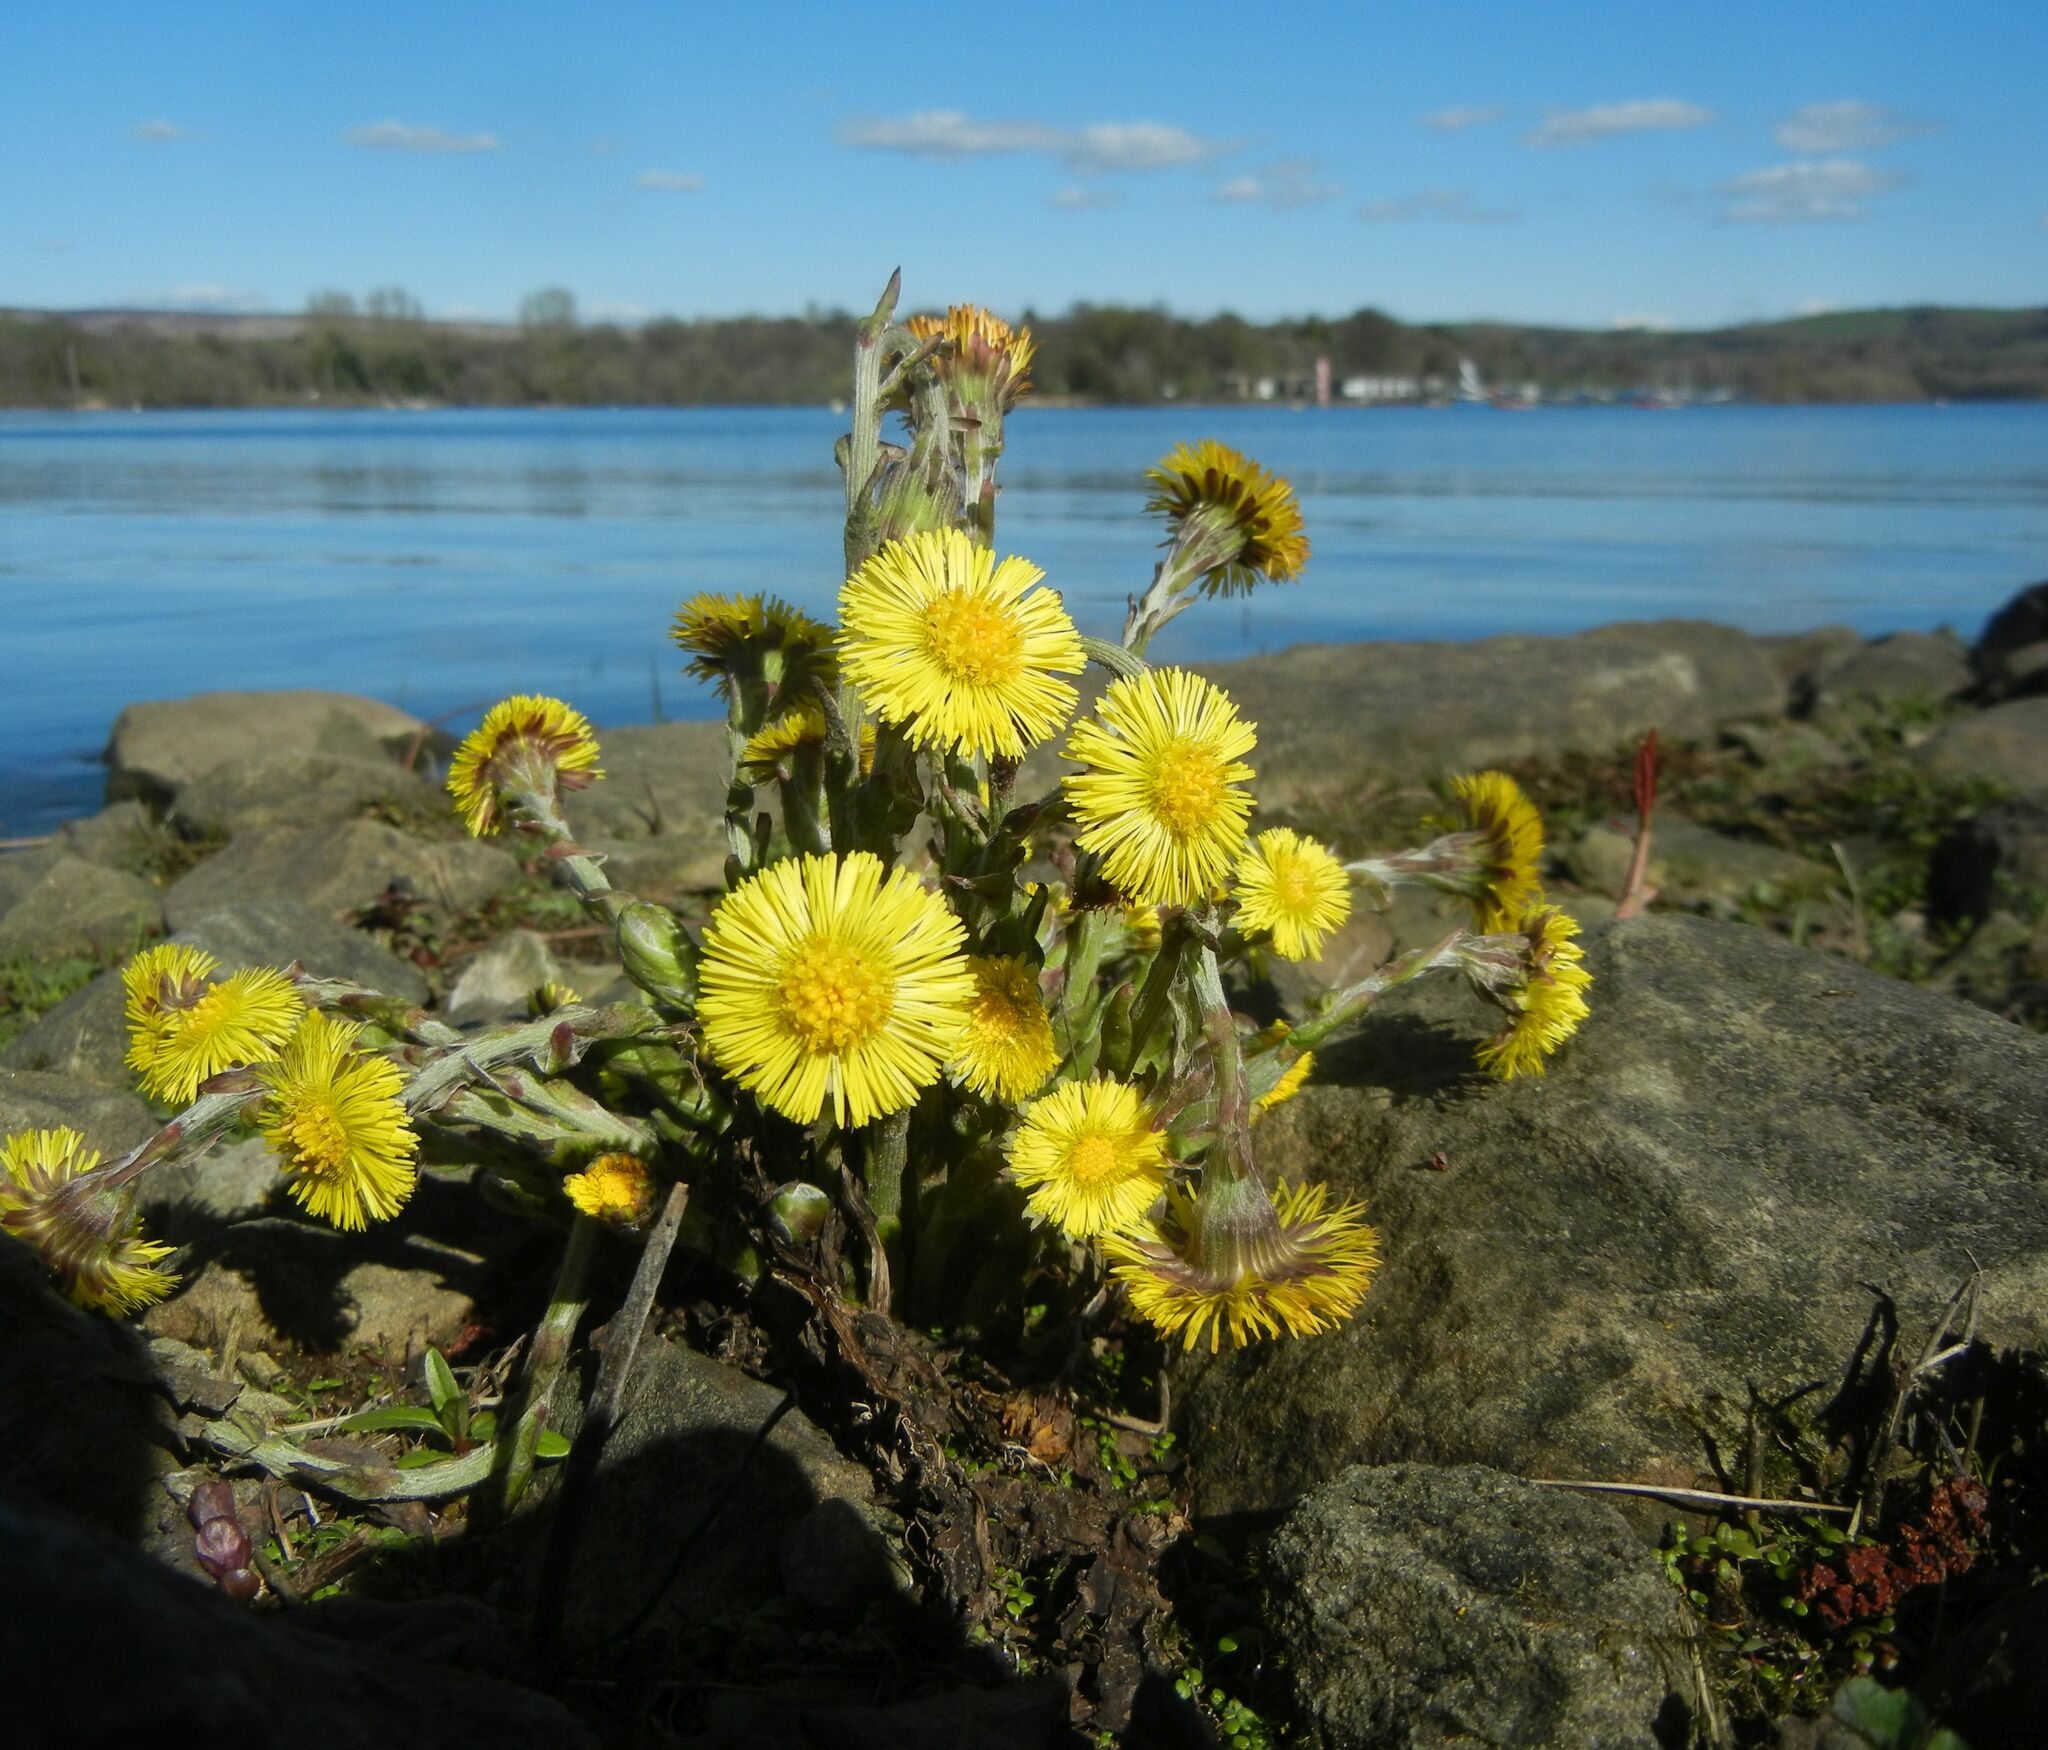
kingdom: Plantae
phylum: Tracheophyta
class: Magnoliopsida
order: Asterales
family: Asteraceae
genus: Tussilago
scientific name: Tussilago farfara
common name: Coltsfoot
